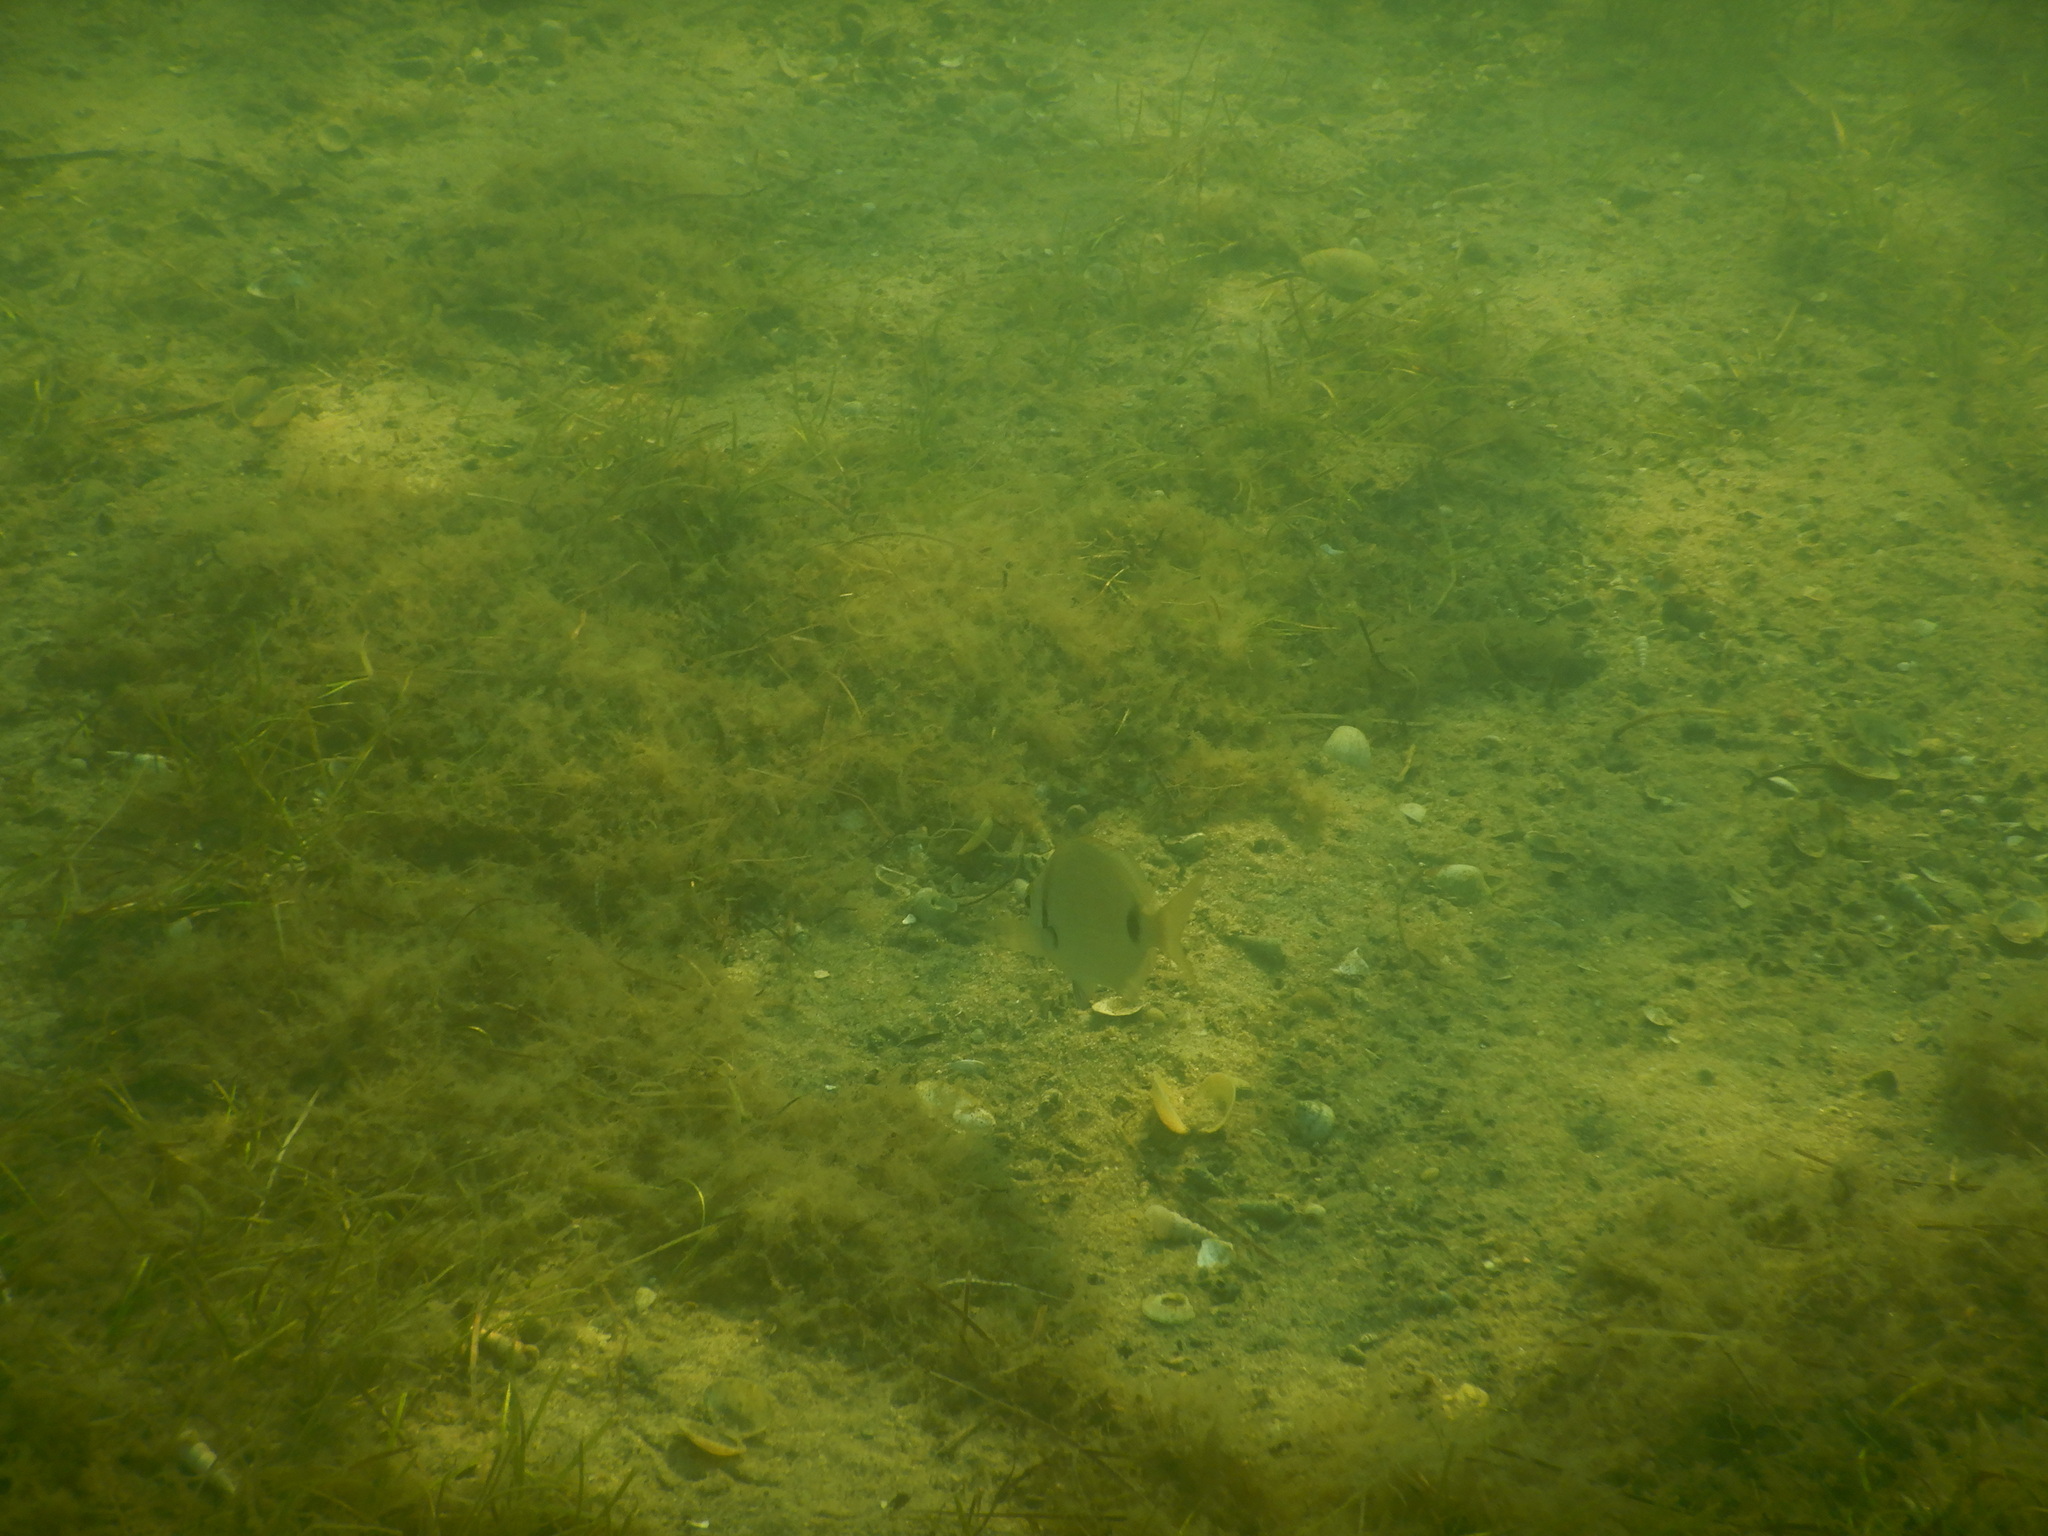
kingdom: Animalia
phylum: Chordata
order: Perciformes
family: Sparidae
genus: Diplodus
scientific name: Diplodus vulgaris
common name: Common two-banded seabream
